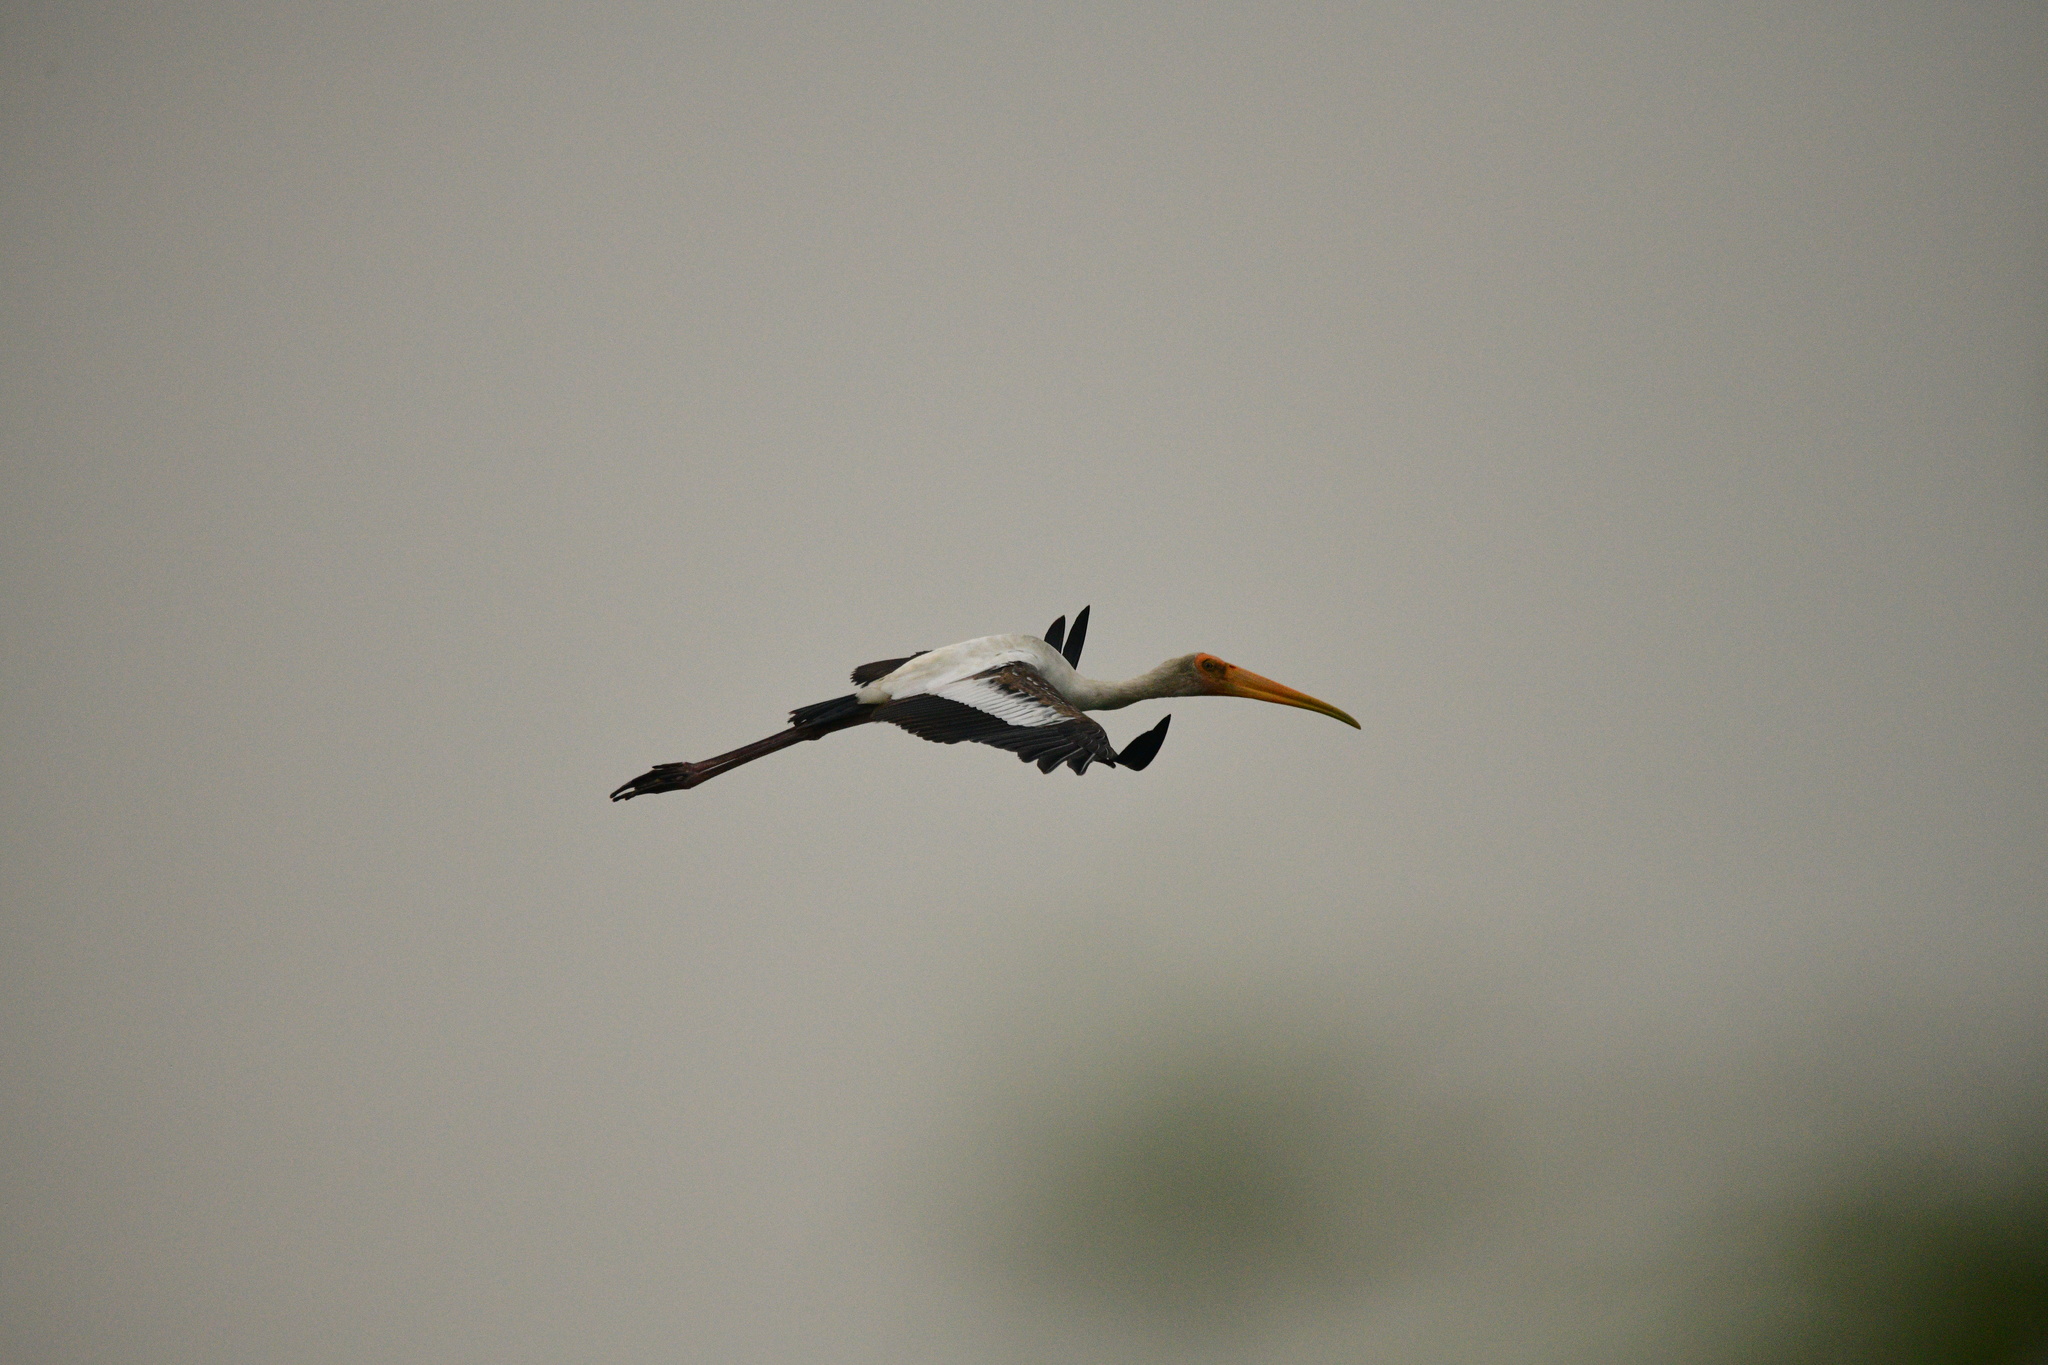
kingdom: Animalia
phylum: Chordata
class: Aves
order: Ciconiiformes
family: Ciconiidae
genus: Mycteria
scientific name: Mycteria leucocephala
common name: Painted stork
